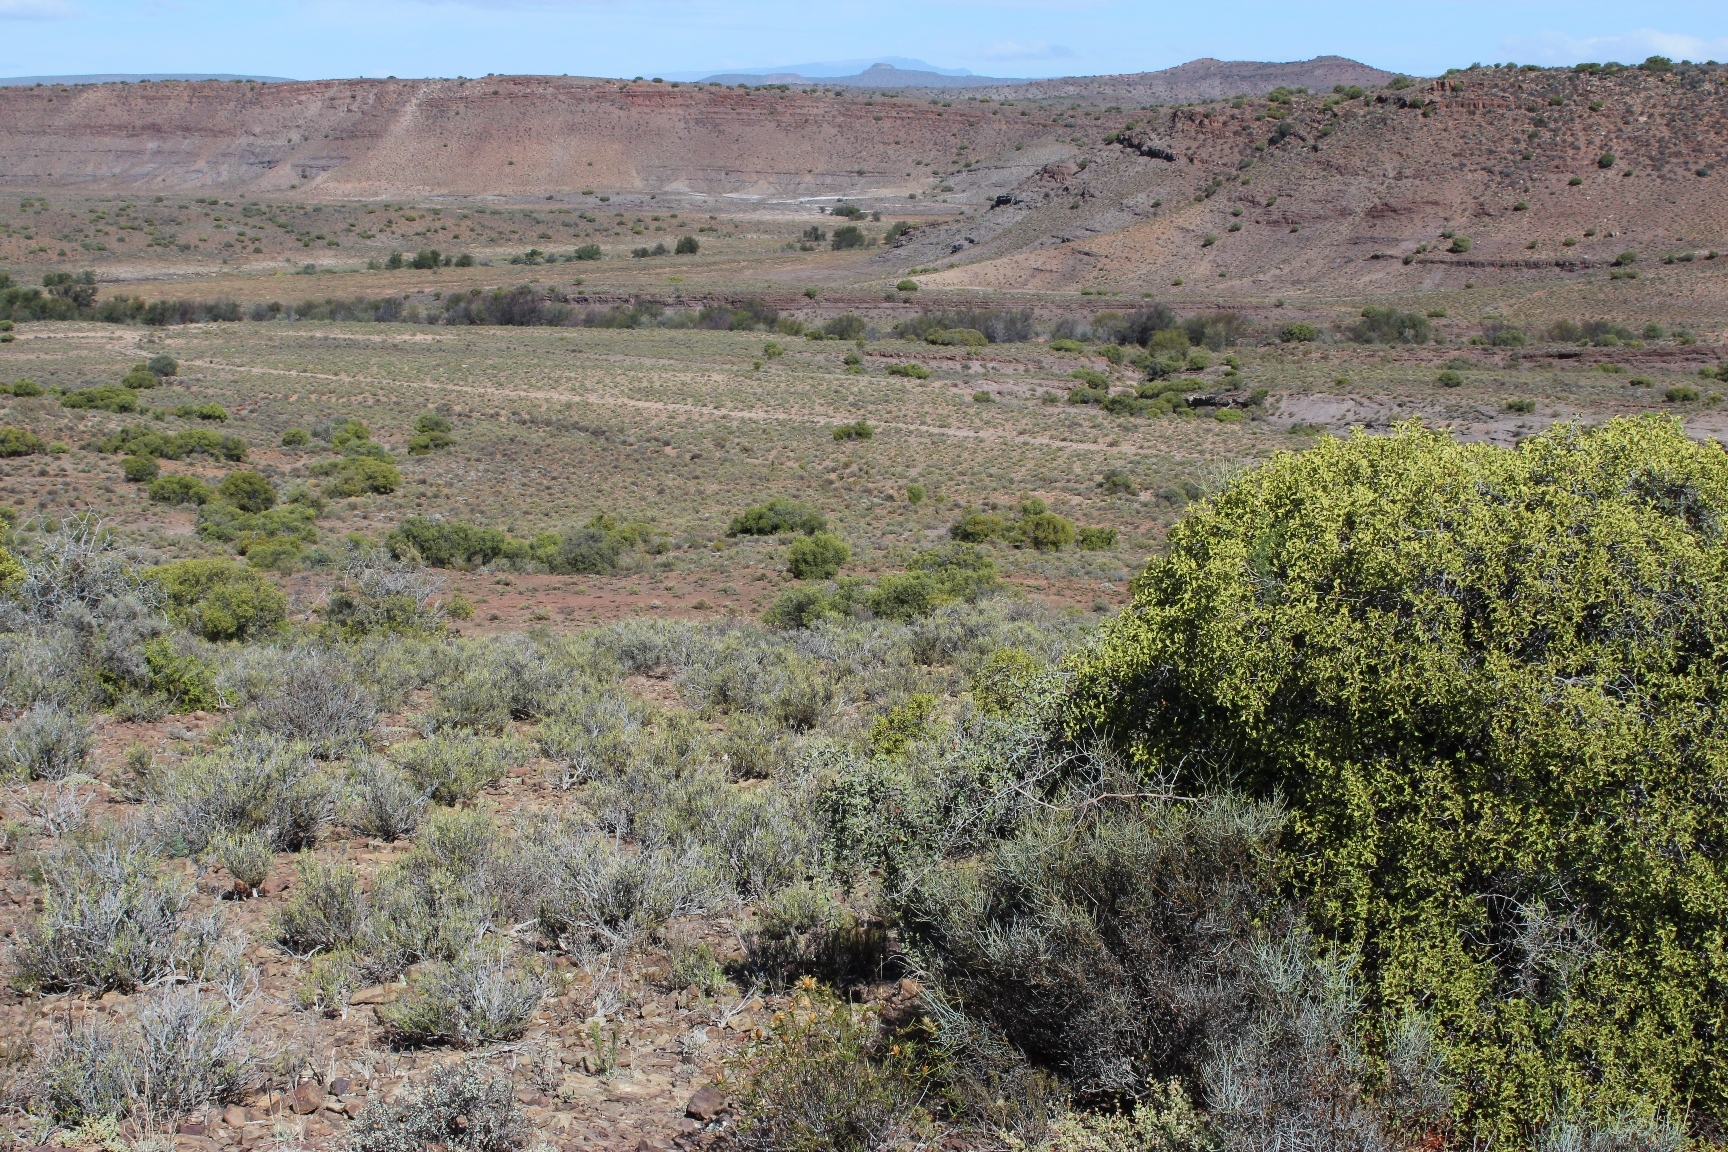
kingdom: Plantae
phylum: Tracheophyta
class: Magnoliopsida
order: Ericales
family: Ebenaceae
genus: Euclea
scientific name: Euclea undulata
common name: Small-leaved guarri
